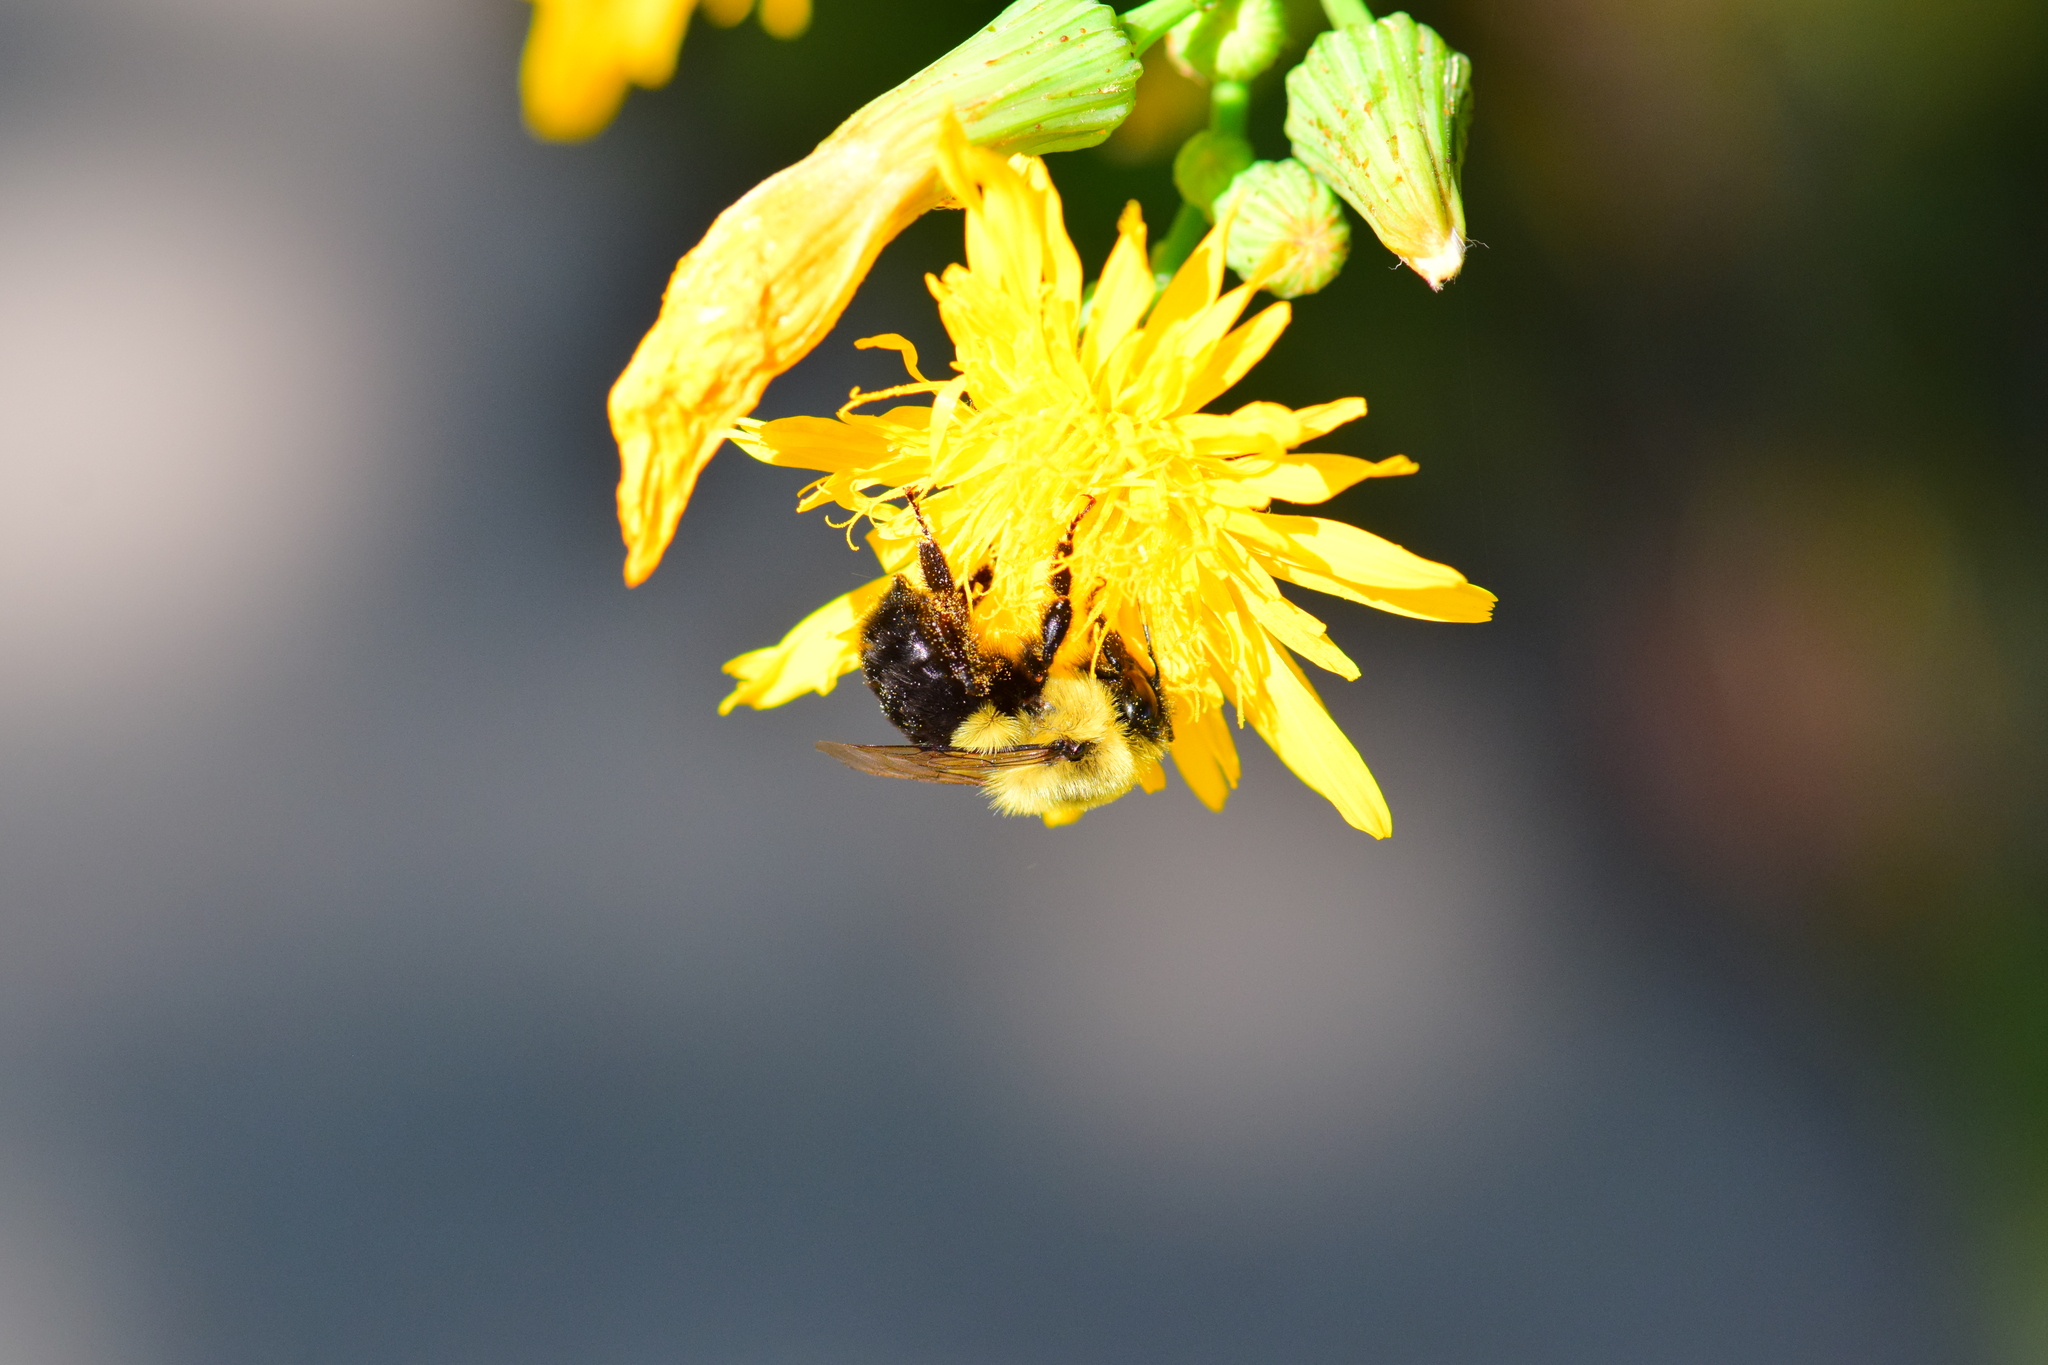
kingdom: Animalia
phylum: Arthropoda
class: Insecta
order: Hymenoptera
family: Apidae
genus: Bombus
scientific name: Bombus impatiens
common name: Common eastern bumble bee
